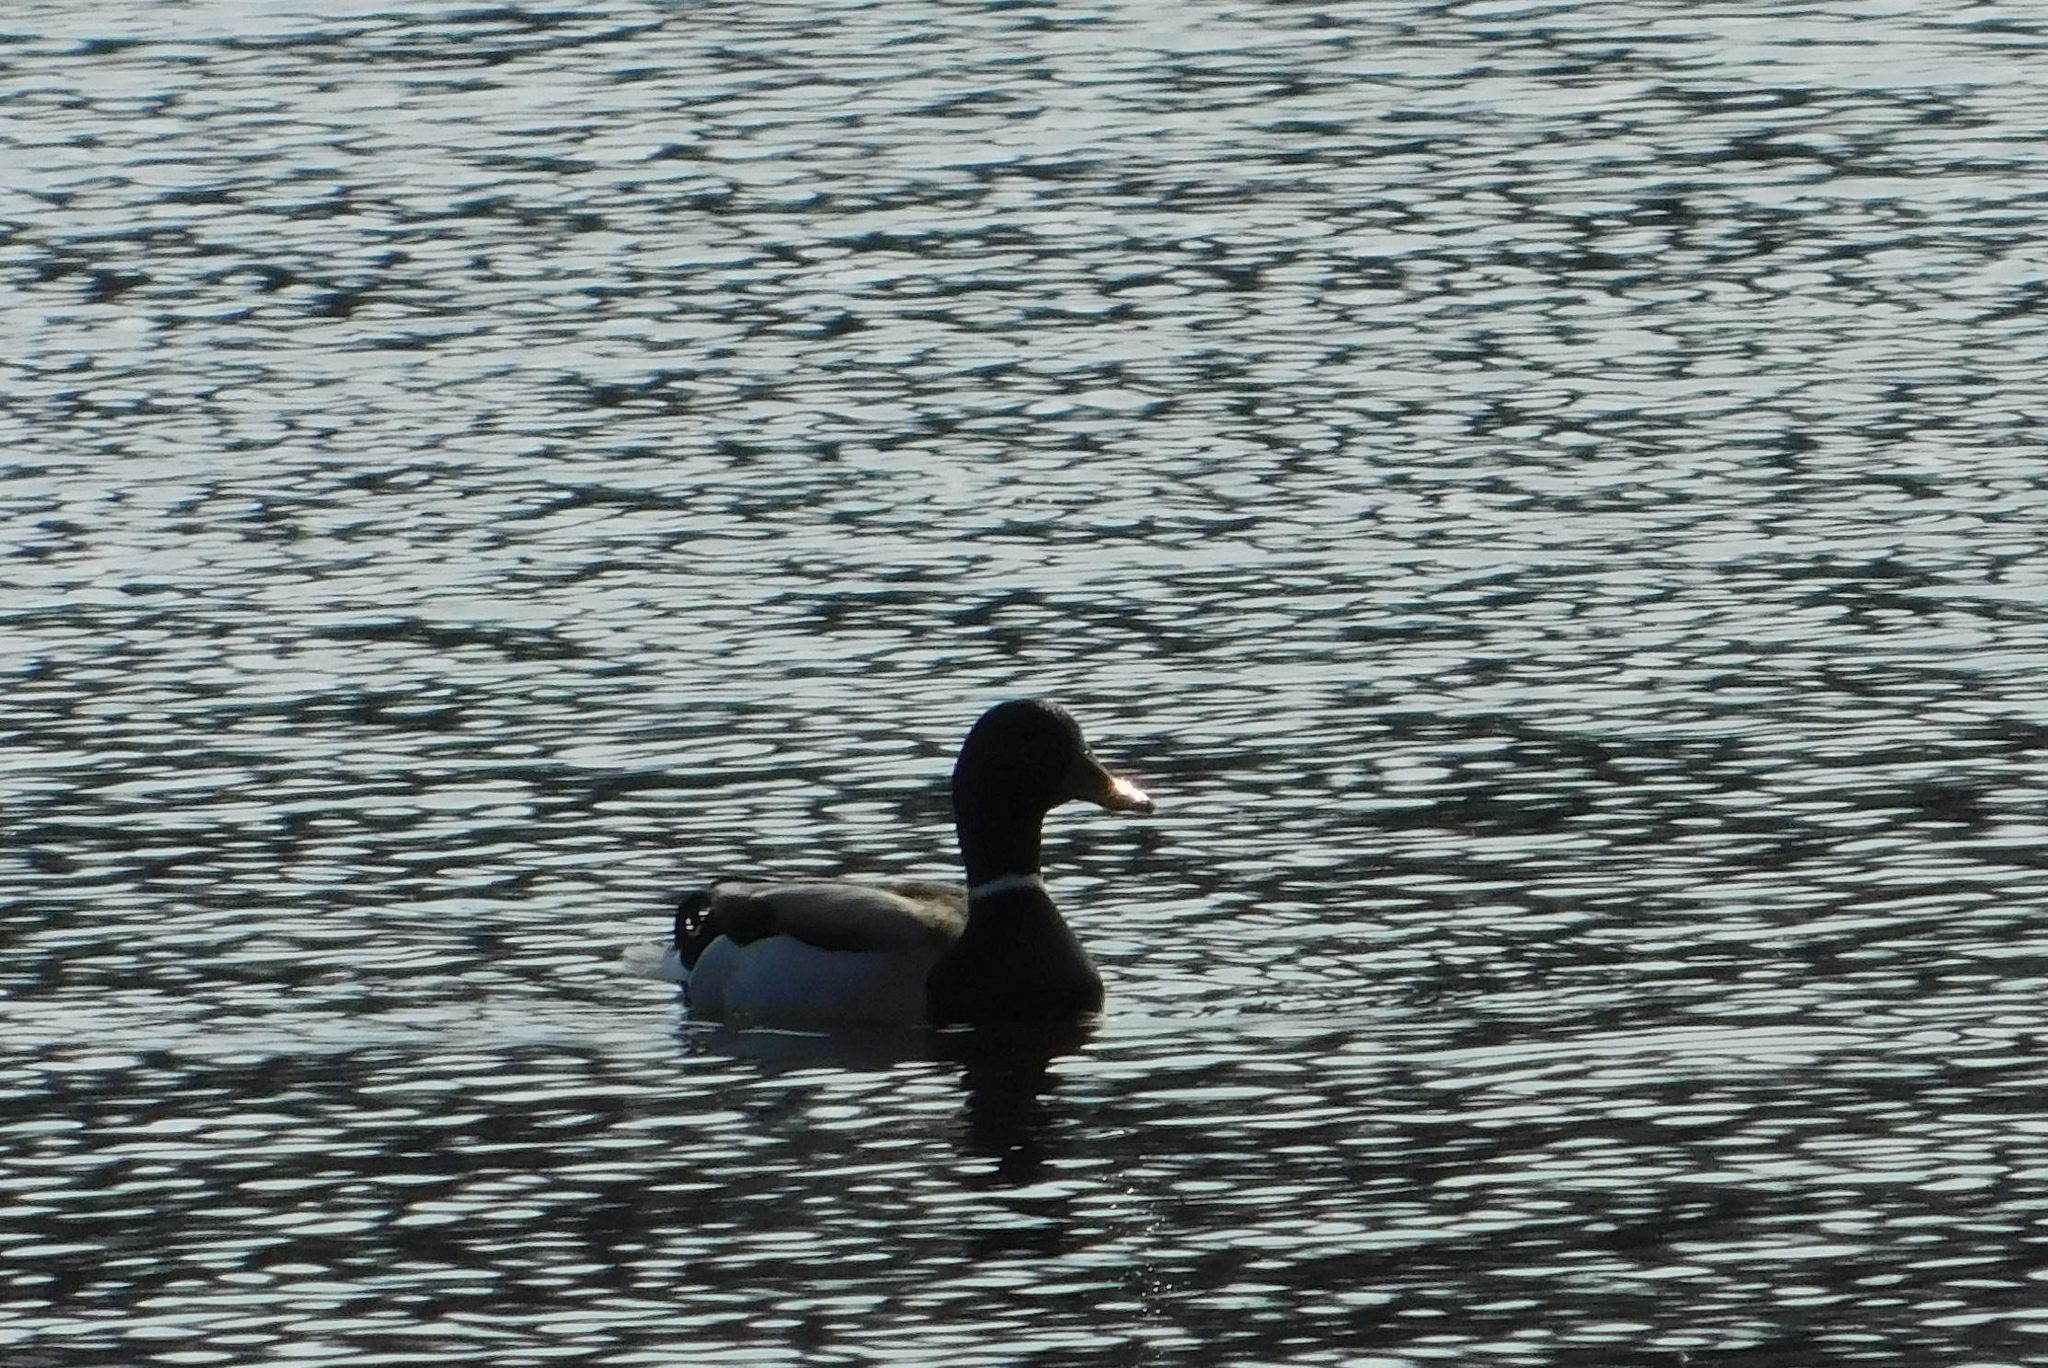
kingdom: Animalia
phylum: Chordata
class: Aves
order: Anseriformes
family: Anatidae
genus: Anas
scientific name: Anas platyrhynchos
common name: Mallard
